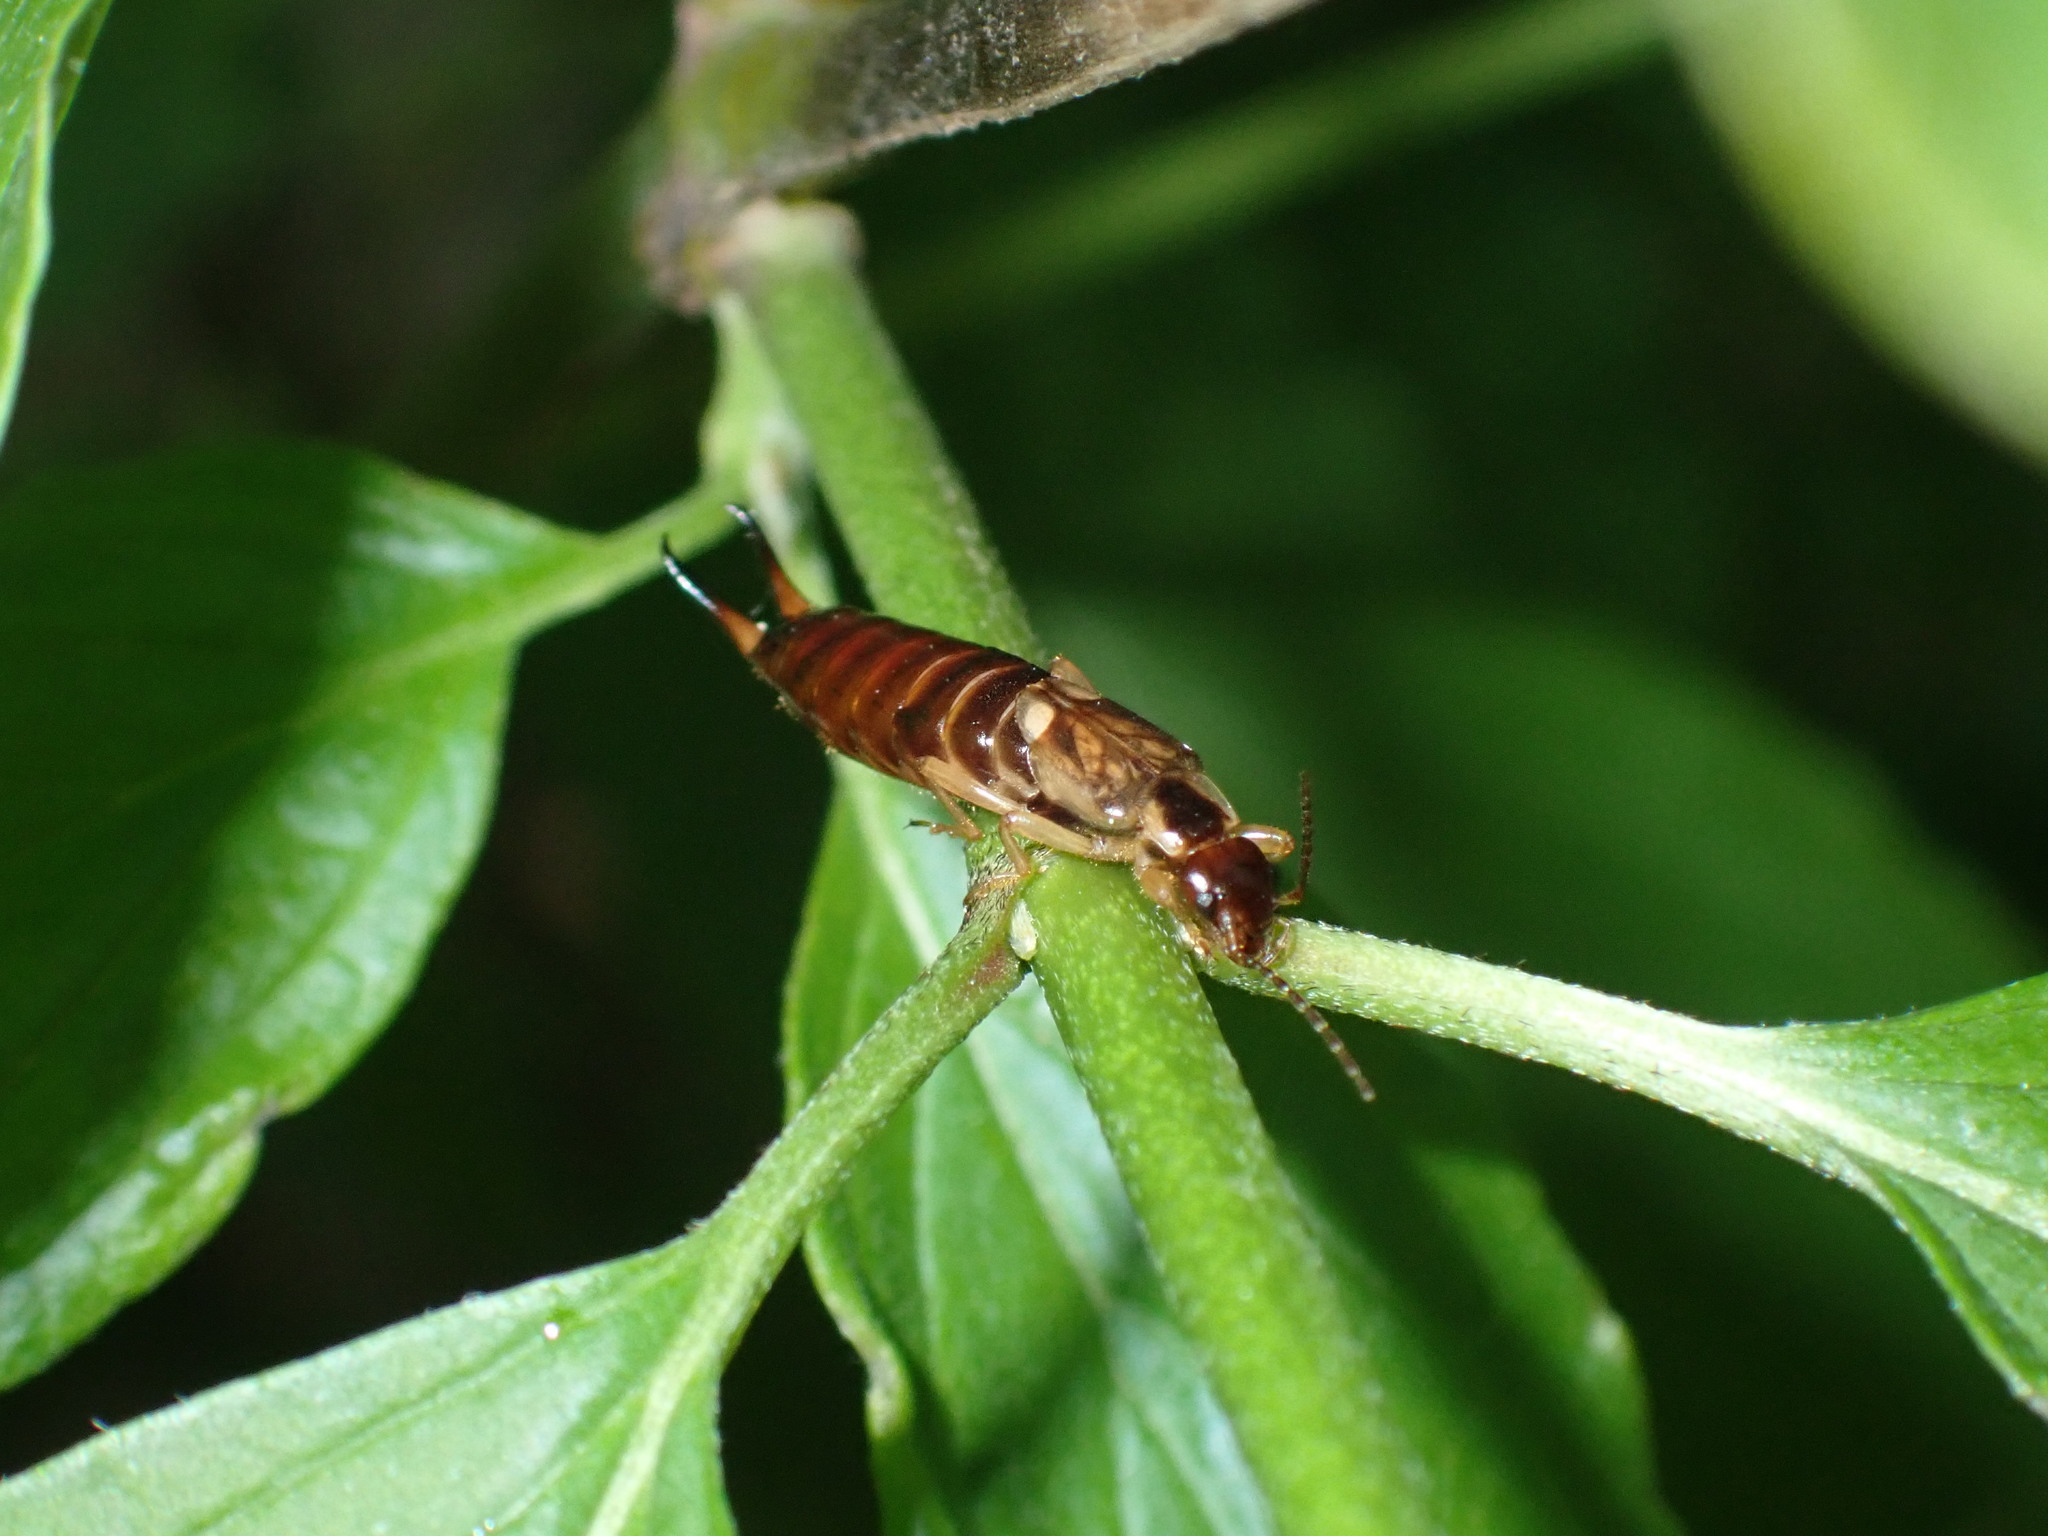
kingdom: Animalia
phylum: Arthropoda
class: Insecta
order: Dermaptera
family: Forficulidae
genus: Forficula
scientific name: Forficula
